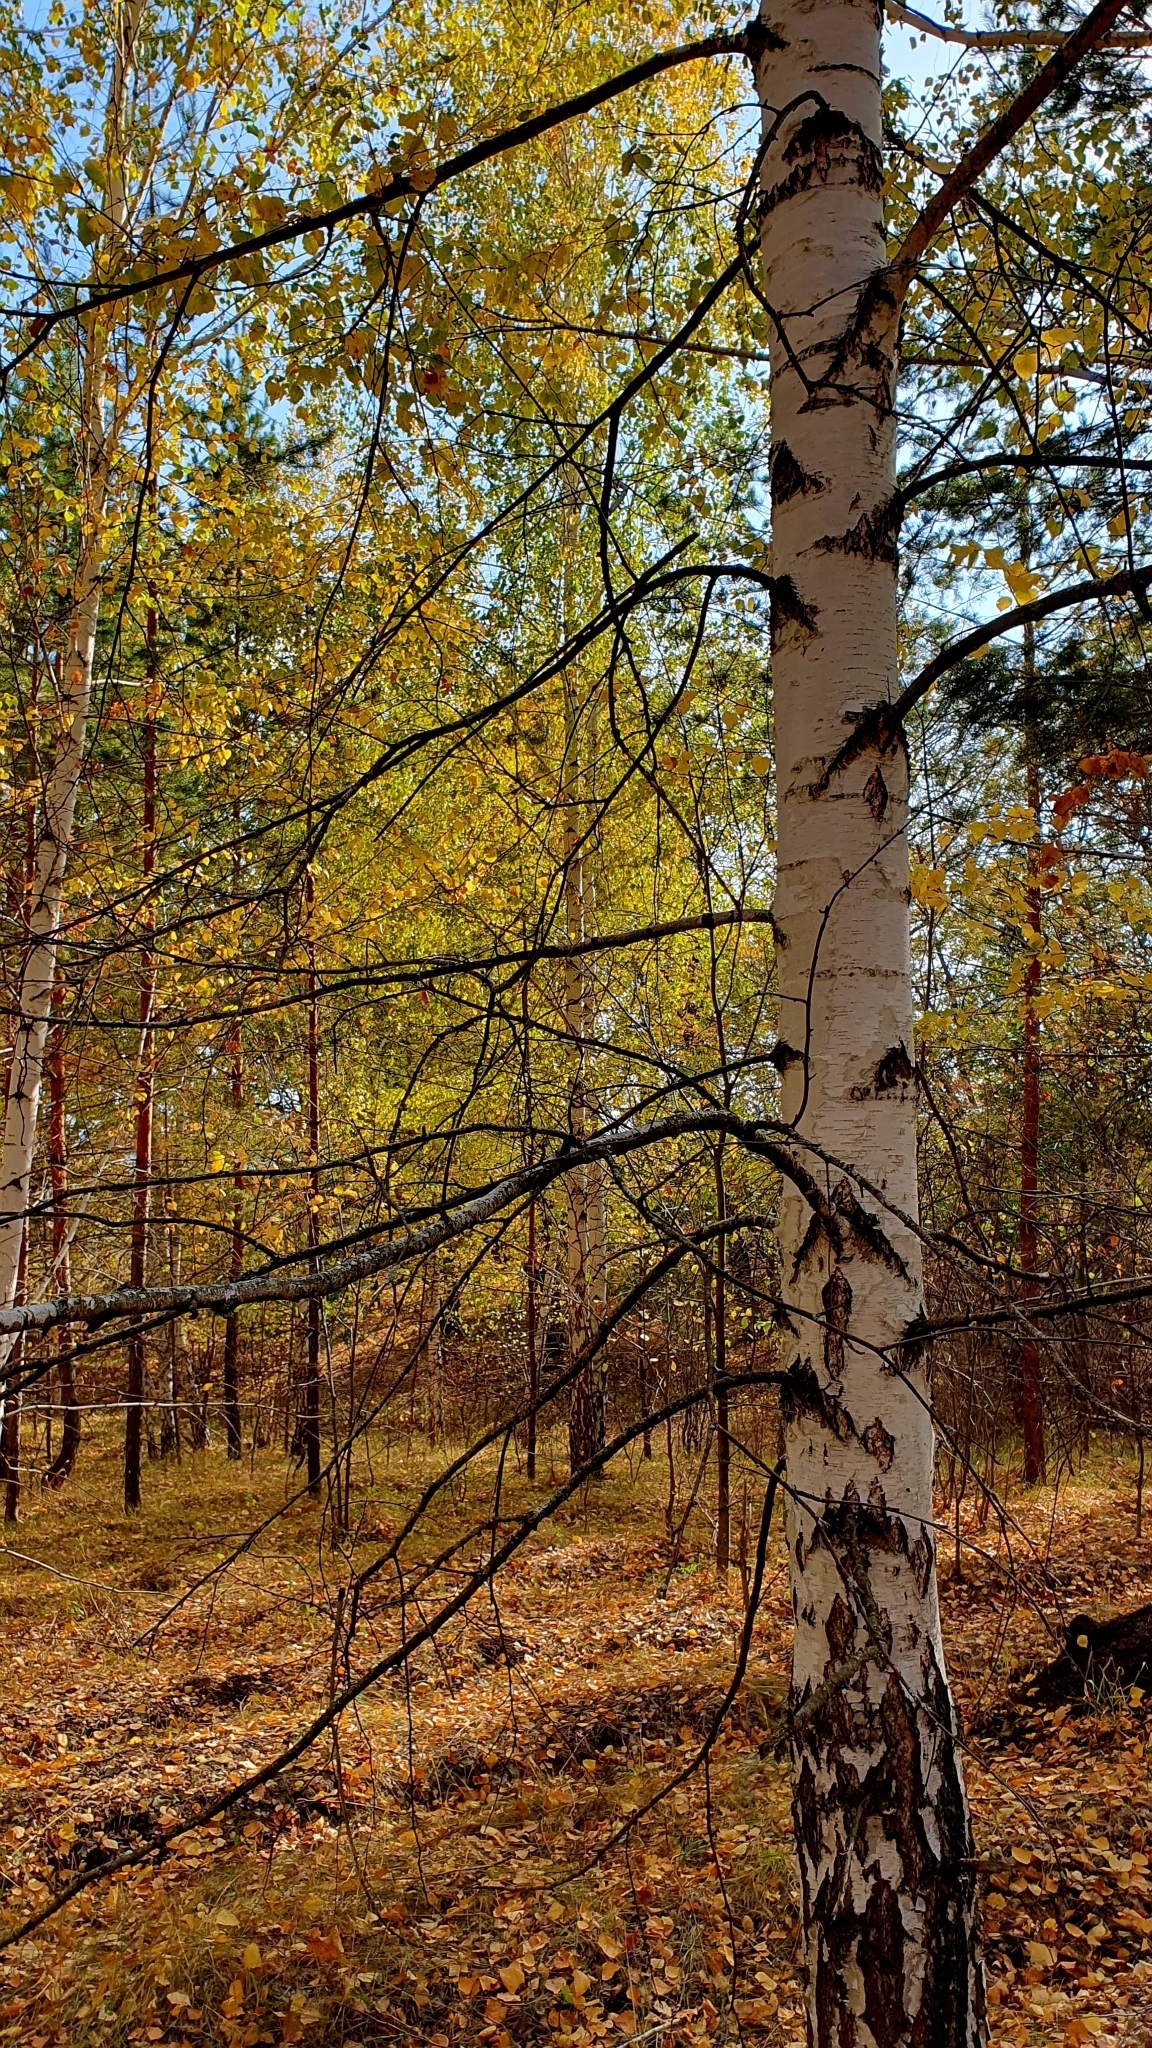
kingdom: Plantae
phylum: Tracheophyta
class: Magnoliopsida
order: Fagales
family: Betulaceae
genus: Betula
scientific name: Betula pendula
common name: Silver birch
